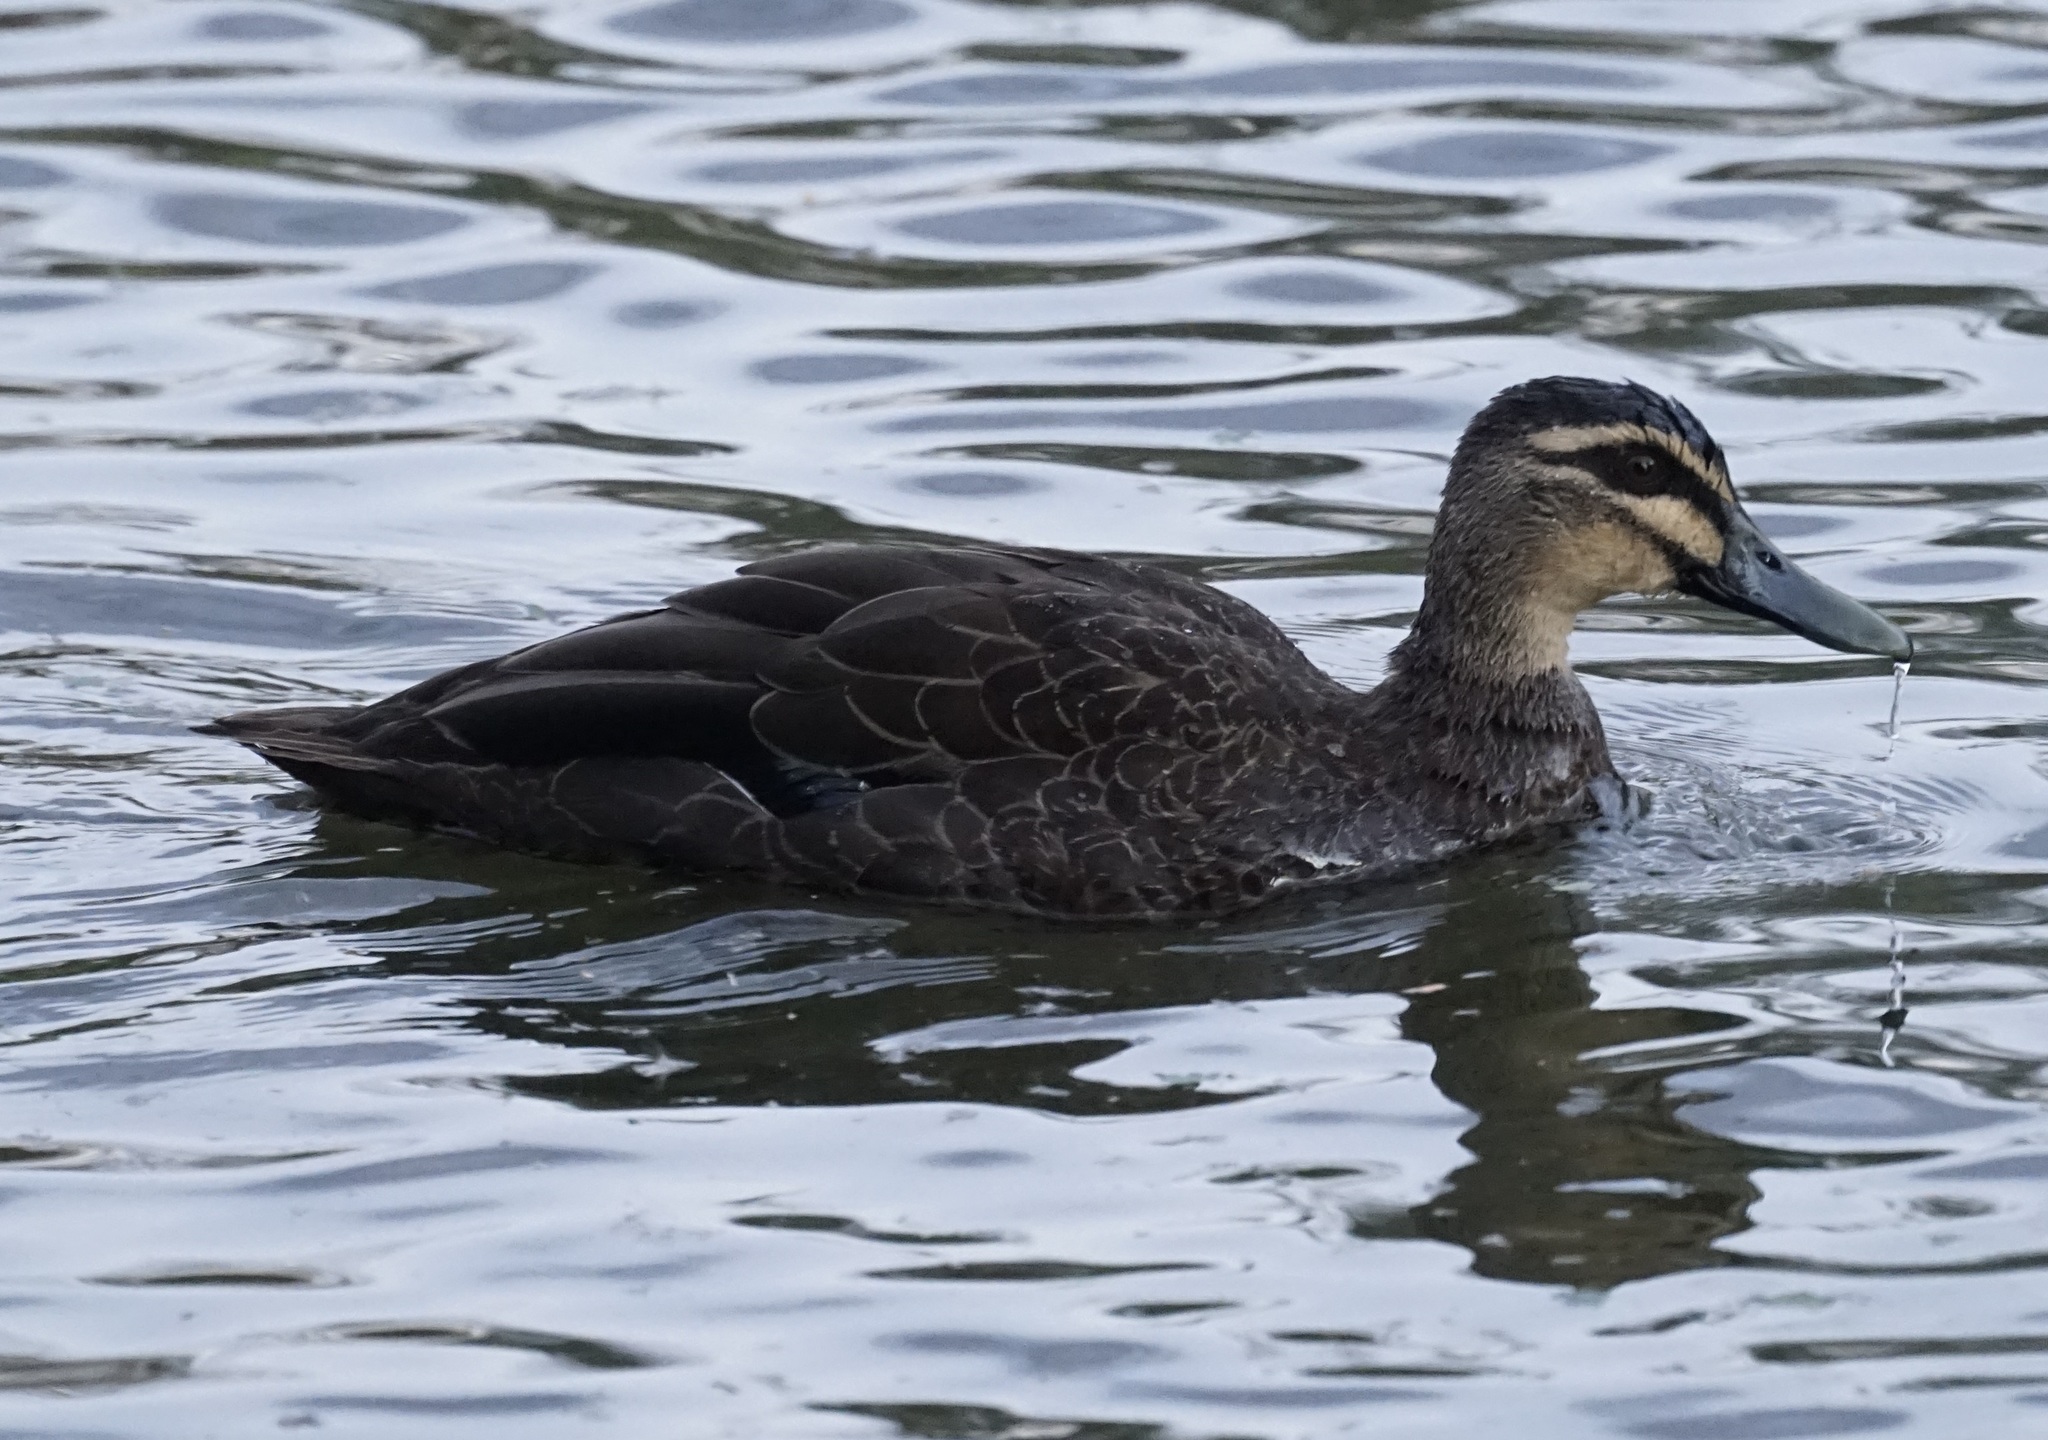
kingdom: Animalia
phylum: Chordata
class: Aves
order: Anseriformes
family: Anatidae
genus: Anas
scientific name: Anas superciliosa
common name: Pacific black duck
